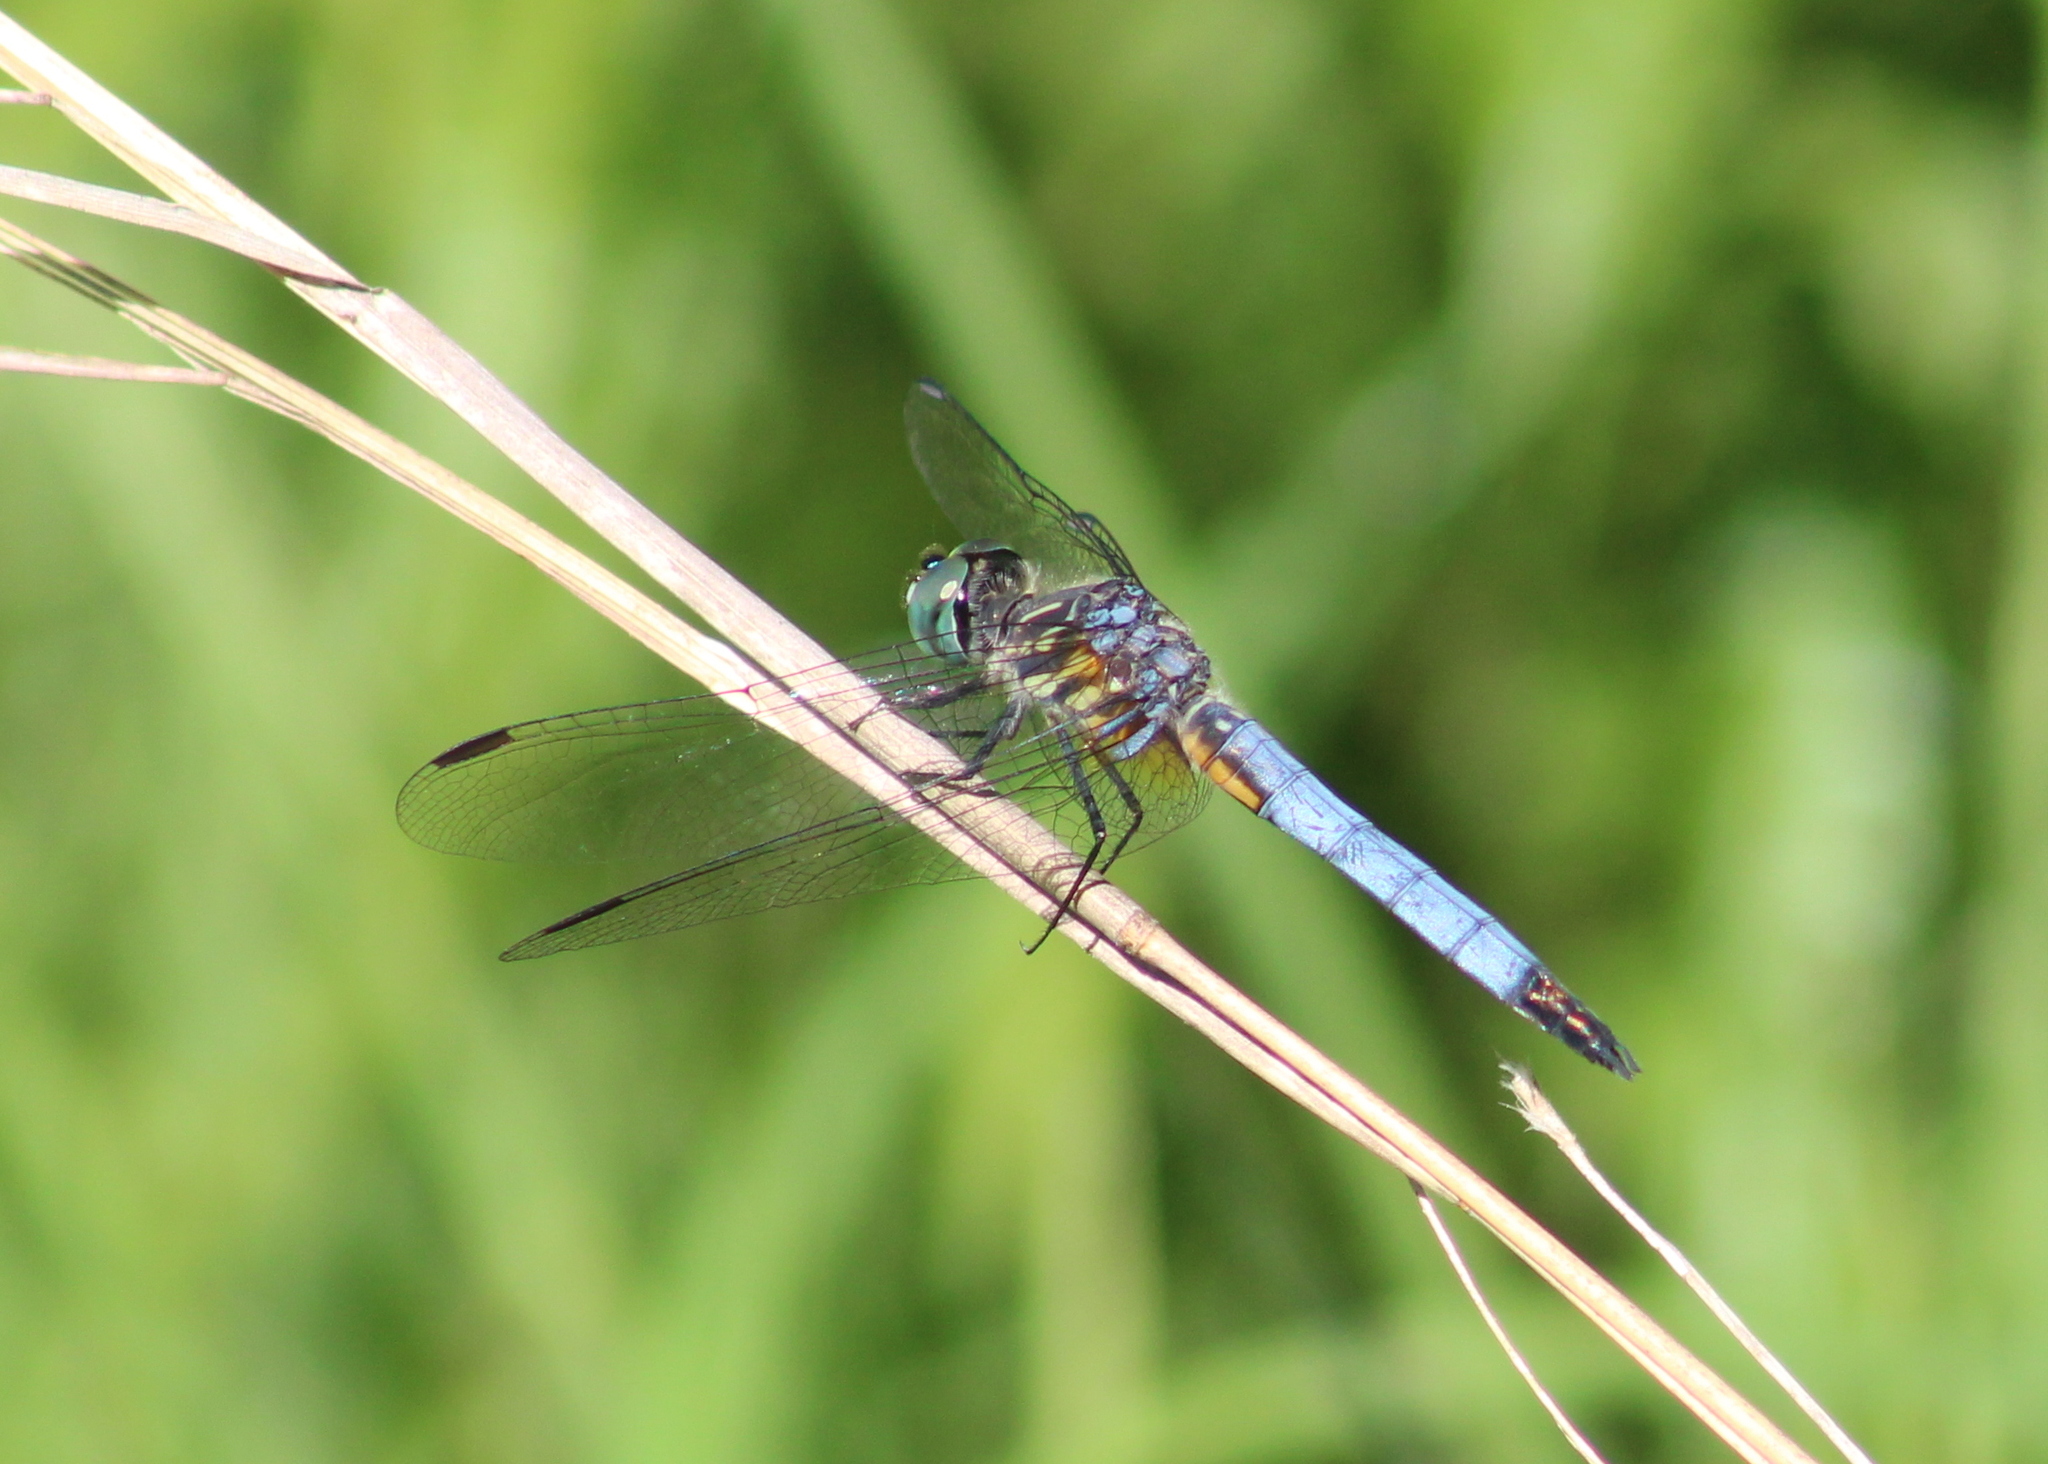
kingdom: Animalia
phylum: Arthropoda
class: Insecta
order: Odonata
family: Libellulidae
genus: Pachydiplax
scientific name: Pachydiplax longipennis
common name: Blue dasher
